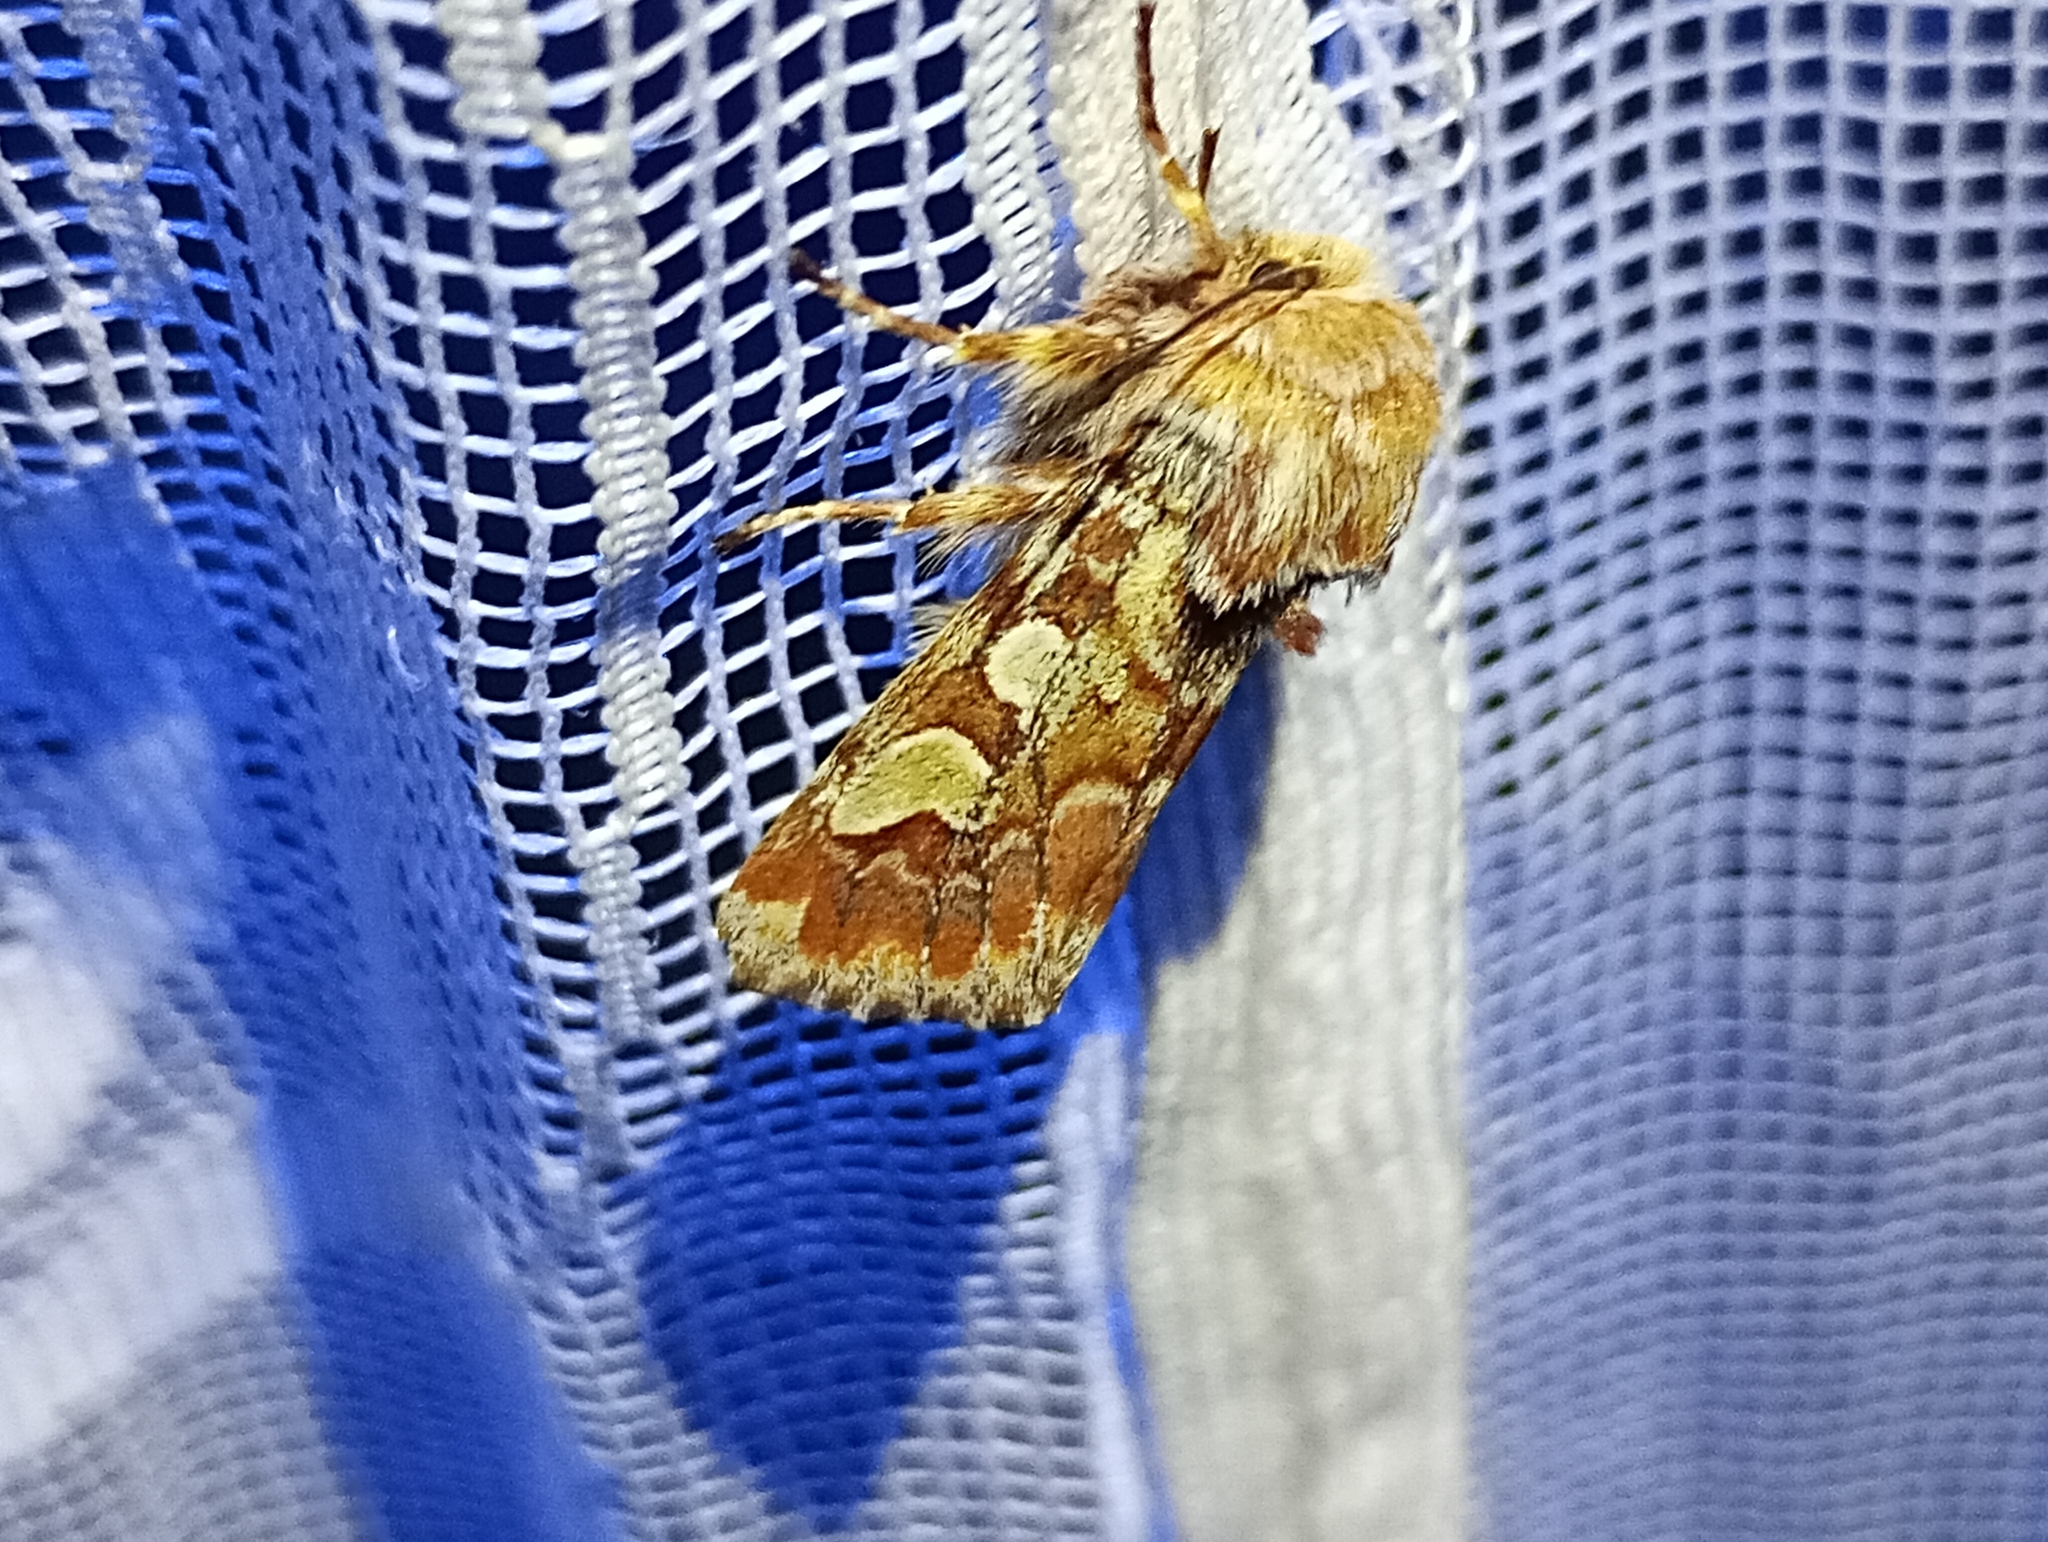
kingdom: Animalia
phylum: Arthropoda
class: Insecta
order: Lepidoptera
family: Noctuidae
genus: Panolis
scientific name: Panolis flammea
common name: Pine beauty
